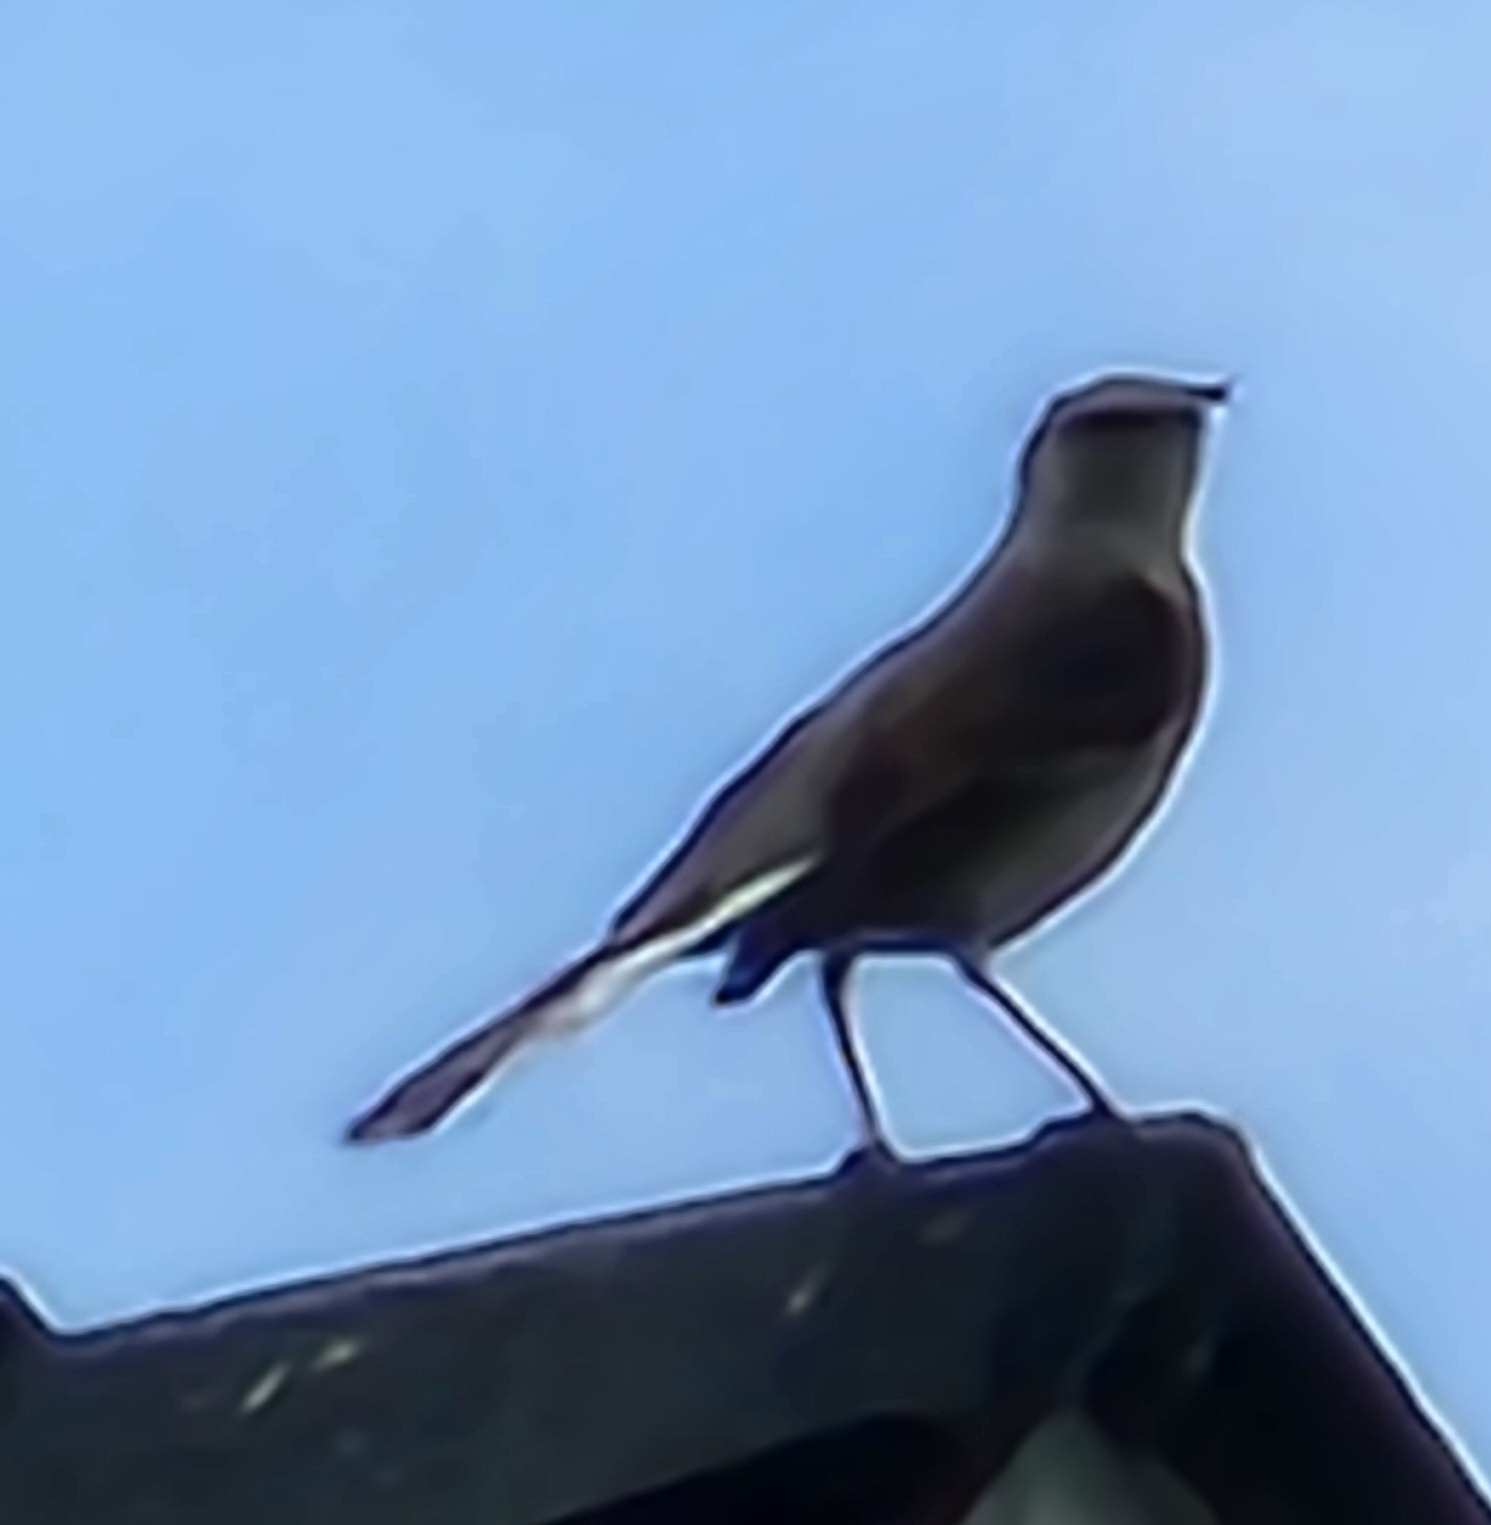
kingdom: Animalia
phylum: Chordata
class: Aves
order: Passeriformes
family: Mimidae
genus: Mimus
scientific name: Mimus polyglottos
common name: Northern mockingbird
